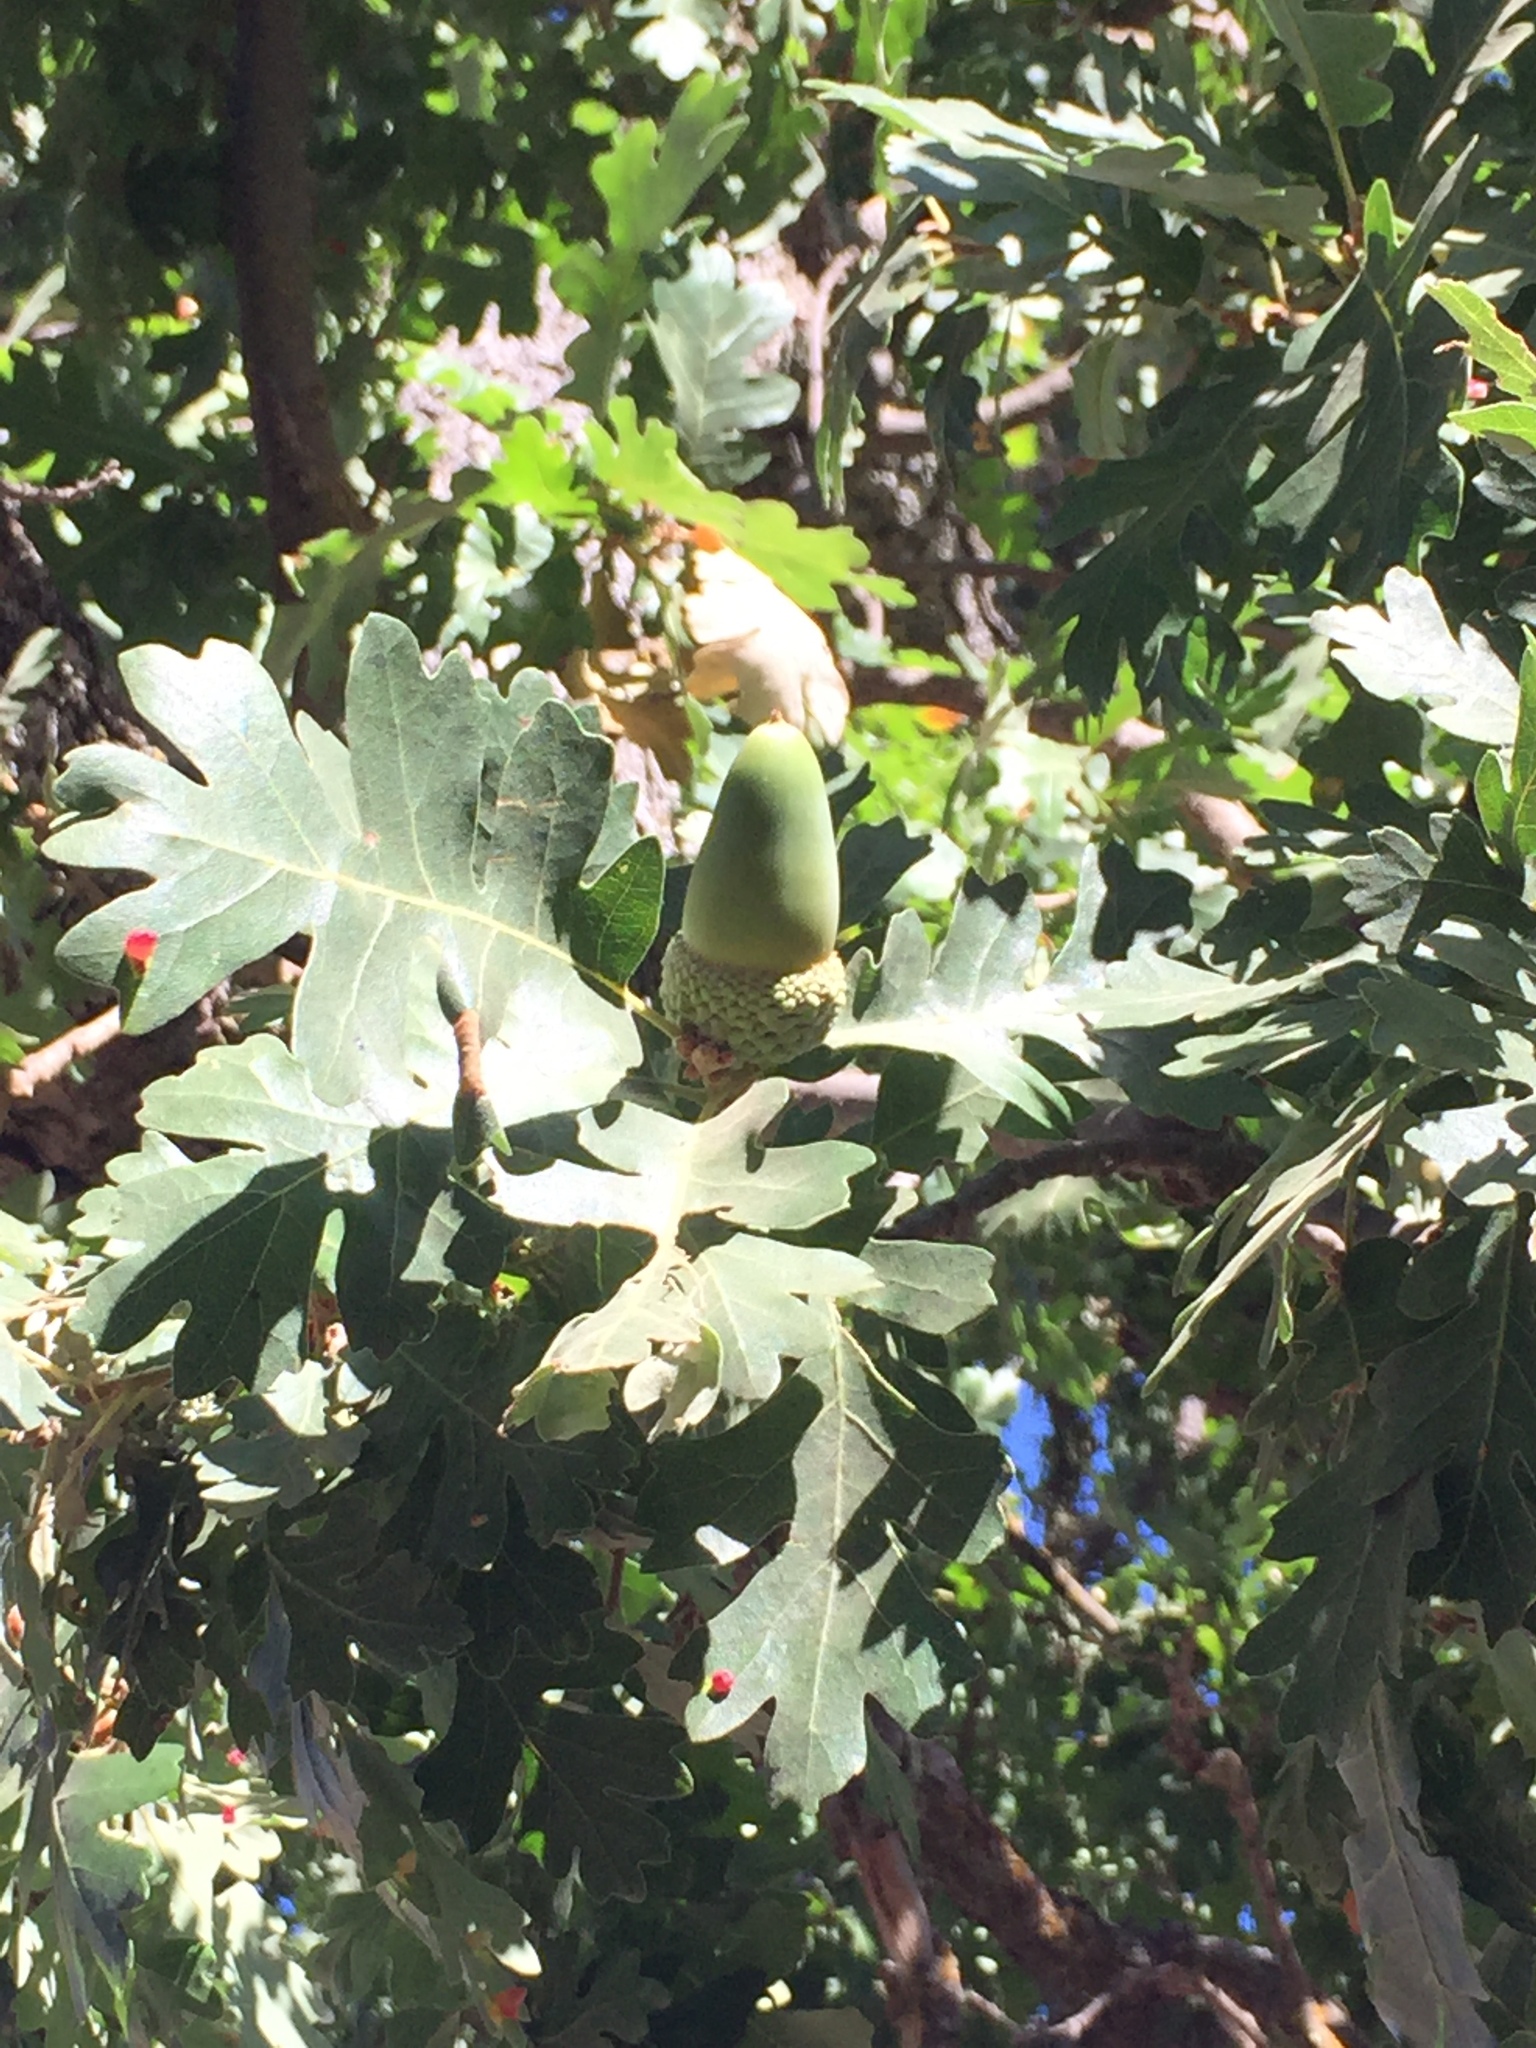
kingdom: Plantae
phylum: Tracheophyta
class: Magnoliopsida
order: Fagales
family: Fagaceae
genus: Quercus
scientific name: Quercus lobata
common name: Valley oak
